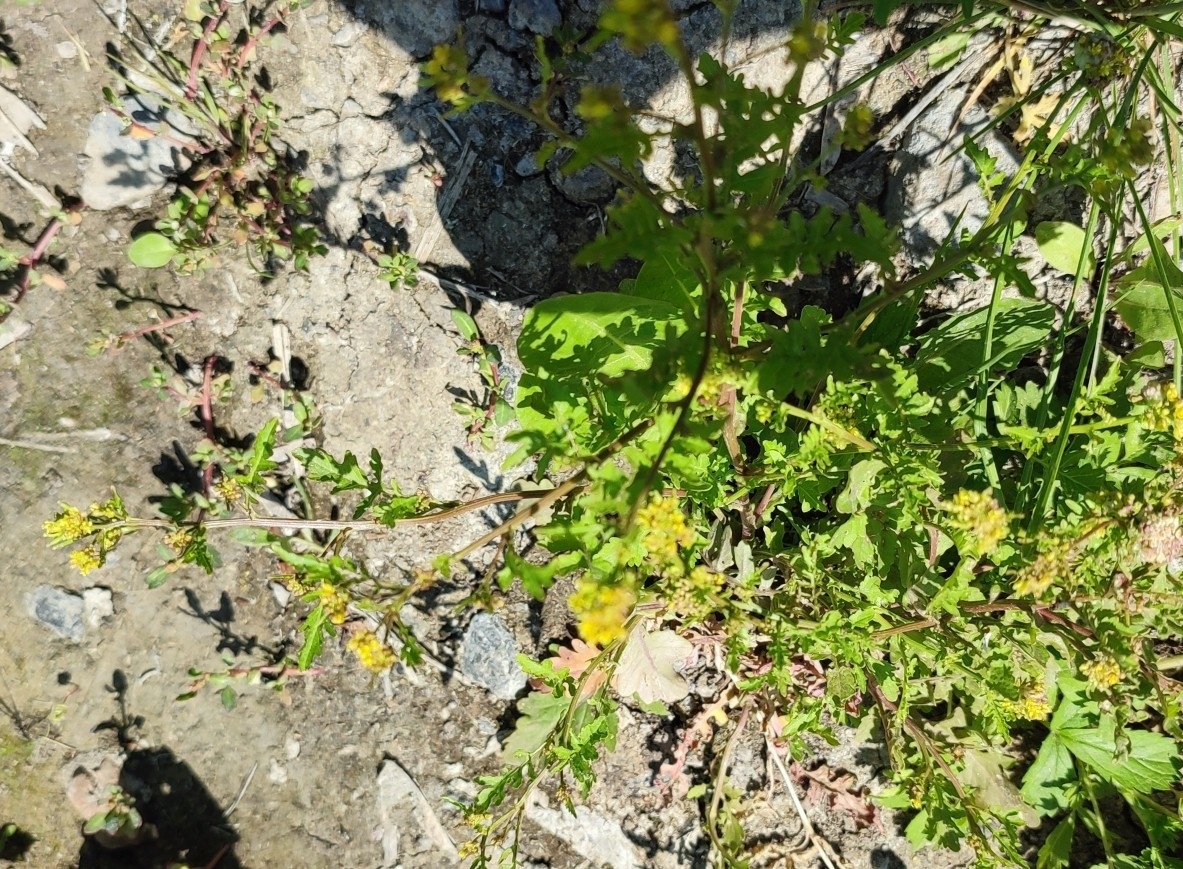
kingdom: Plantae
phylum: Tracheophyta
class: Magnoliopsida
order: Brassicales
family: Brassicaceae
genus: Rorippa
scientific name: Rorippa palustris
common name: Marsh yellow-cress
